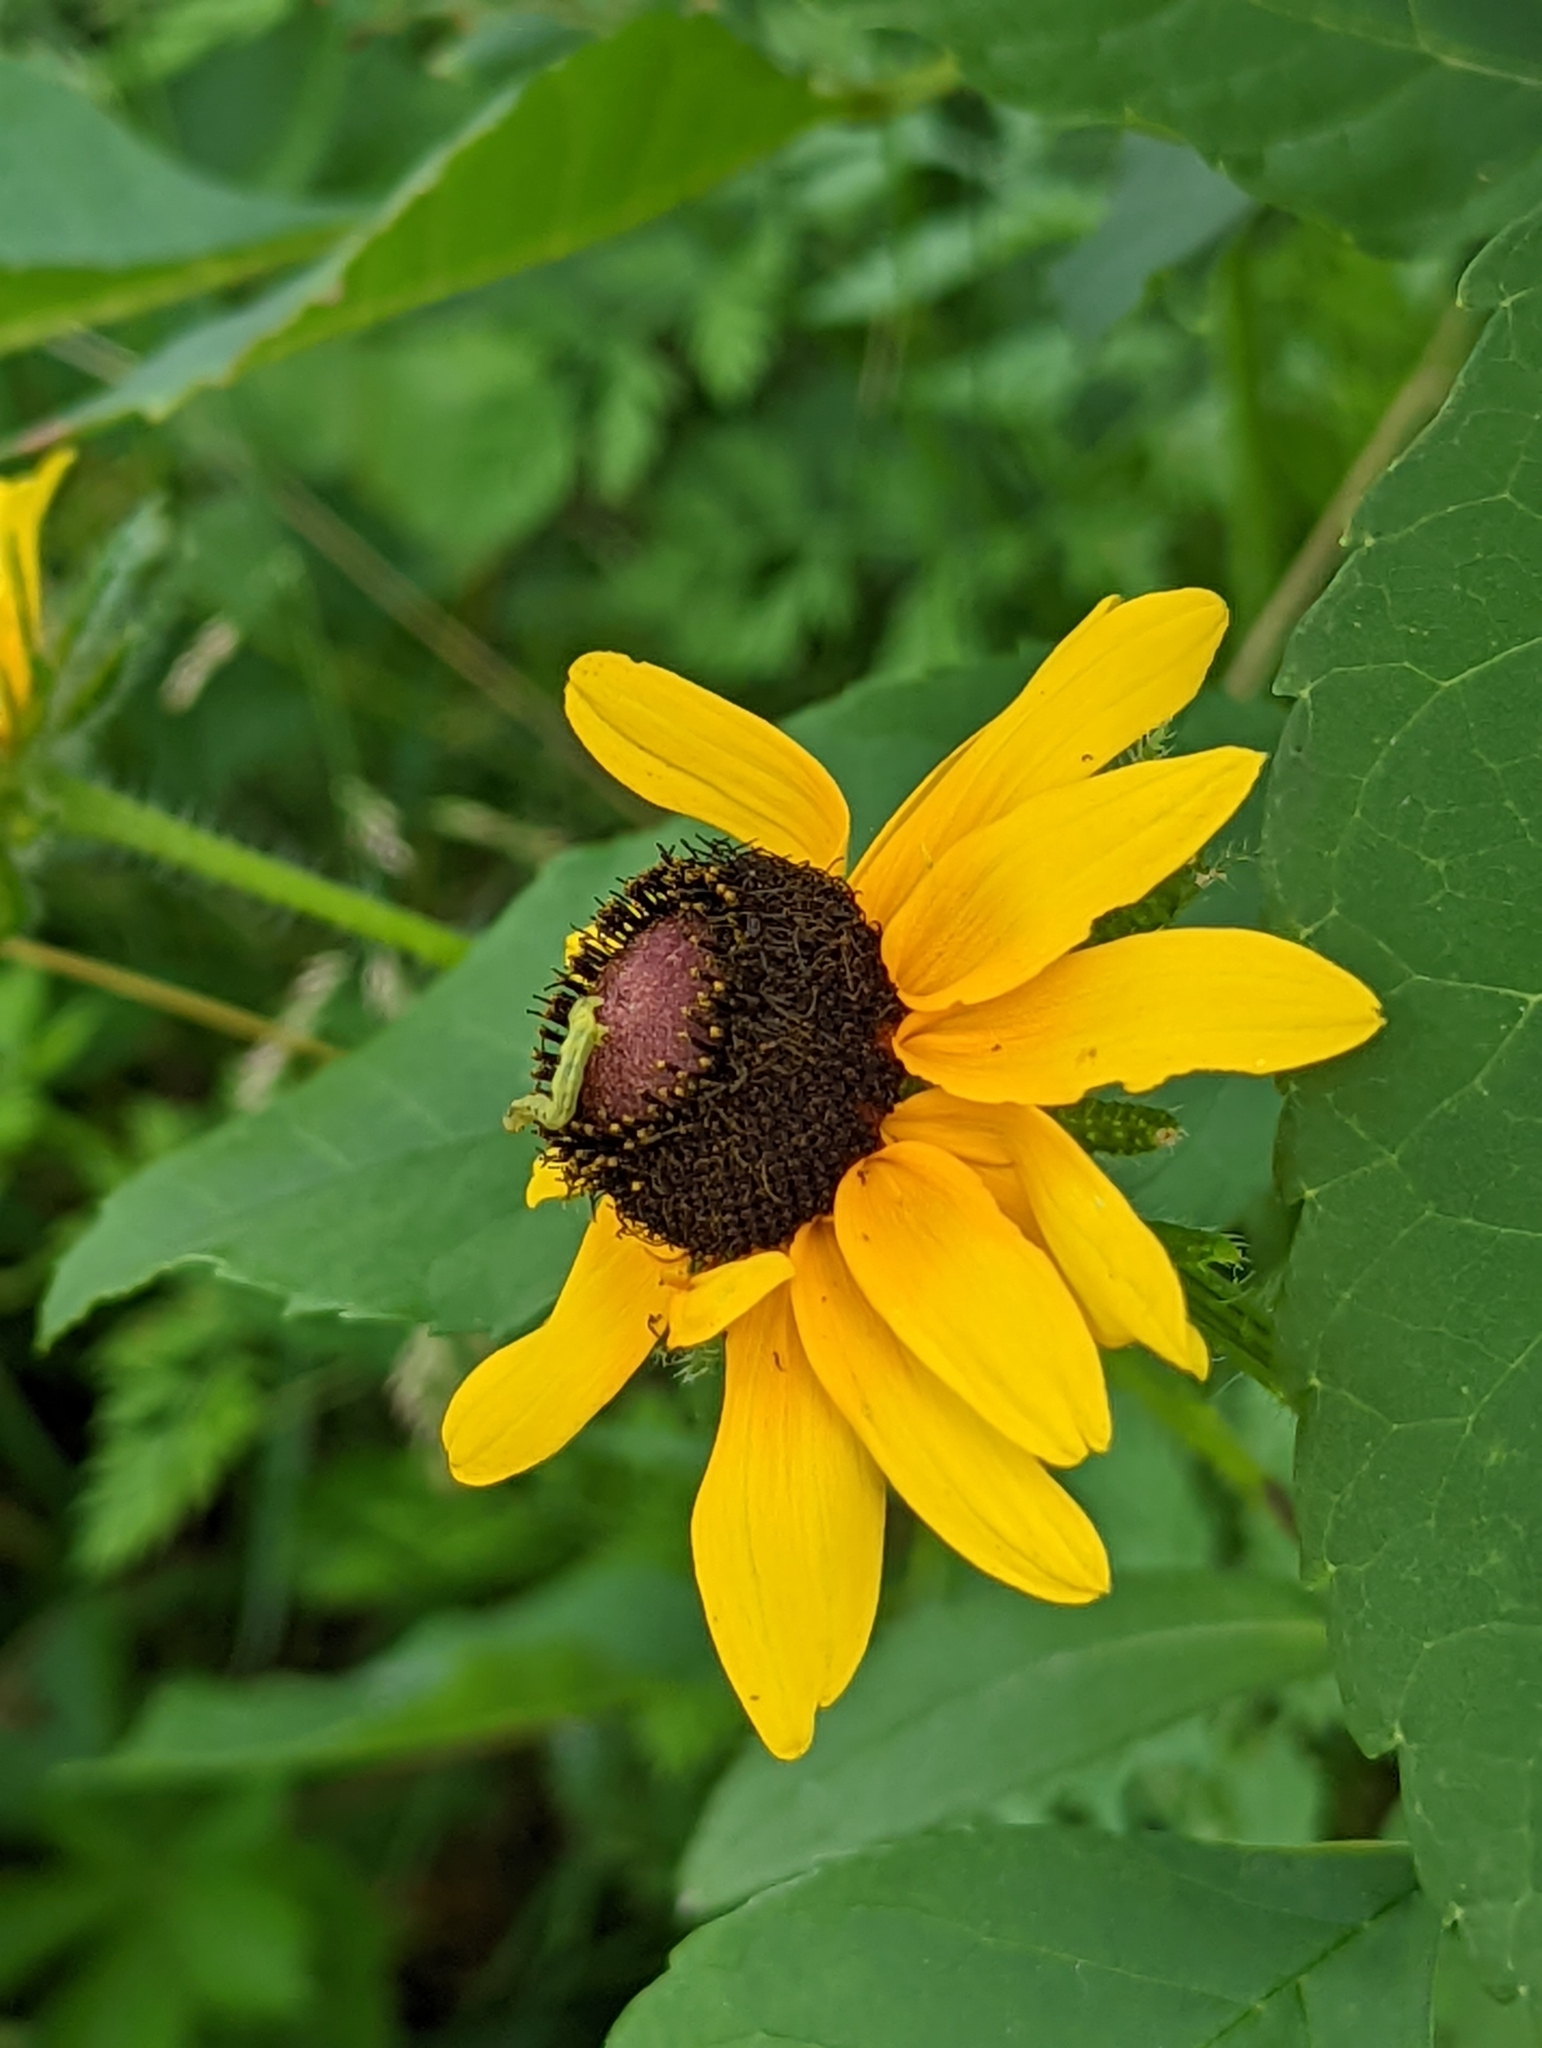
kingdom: Plantae
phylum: Tracheophyta
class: Magnoliopsida
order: Asterales
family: Asteraceae
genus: Rudbeckia
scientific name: Rudbeckia hirta
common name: Black-eyed-susan
